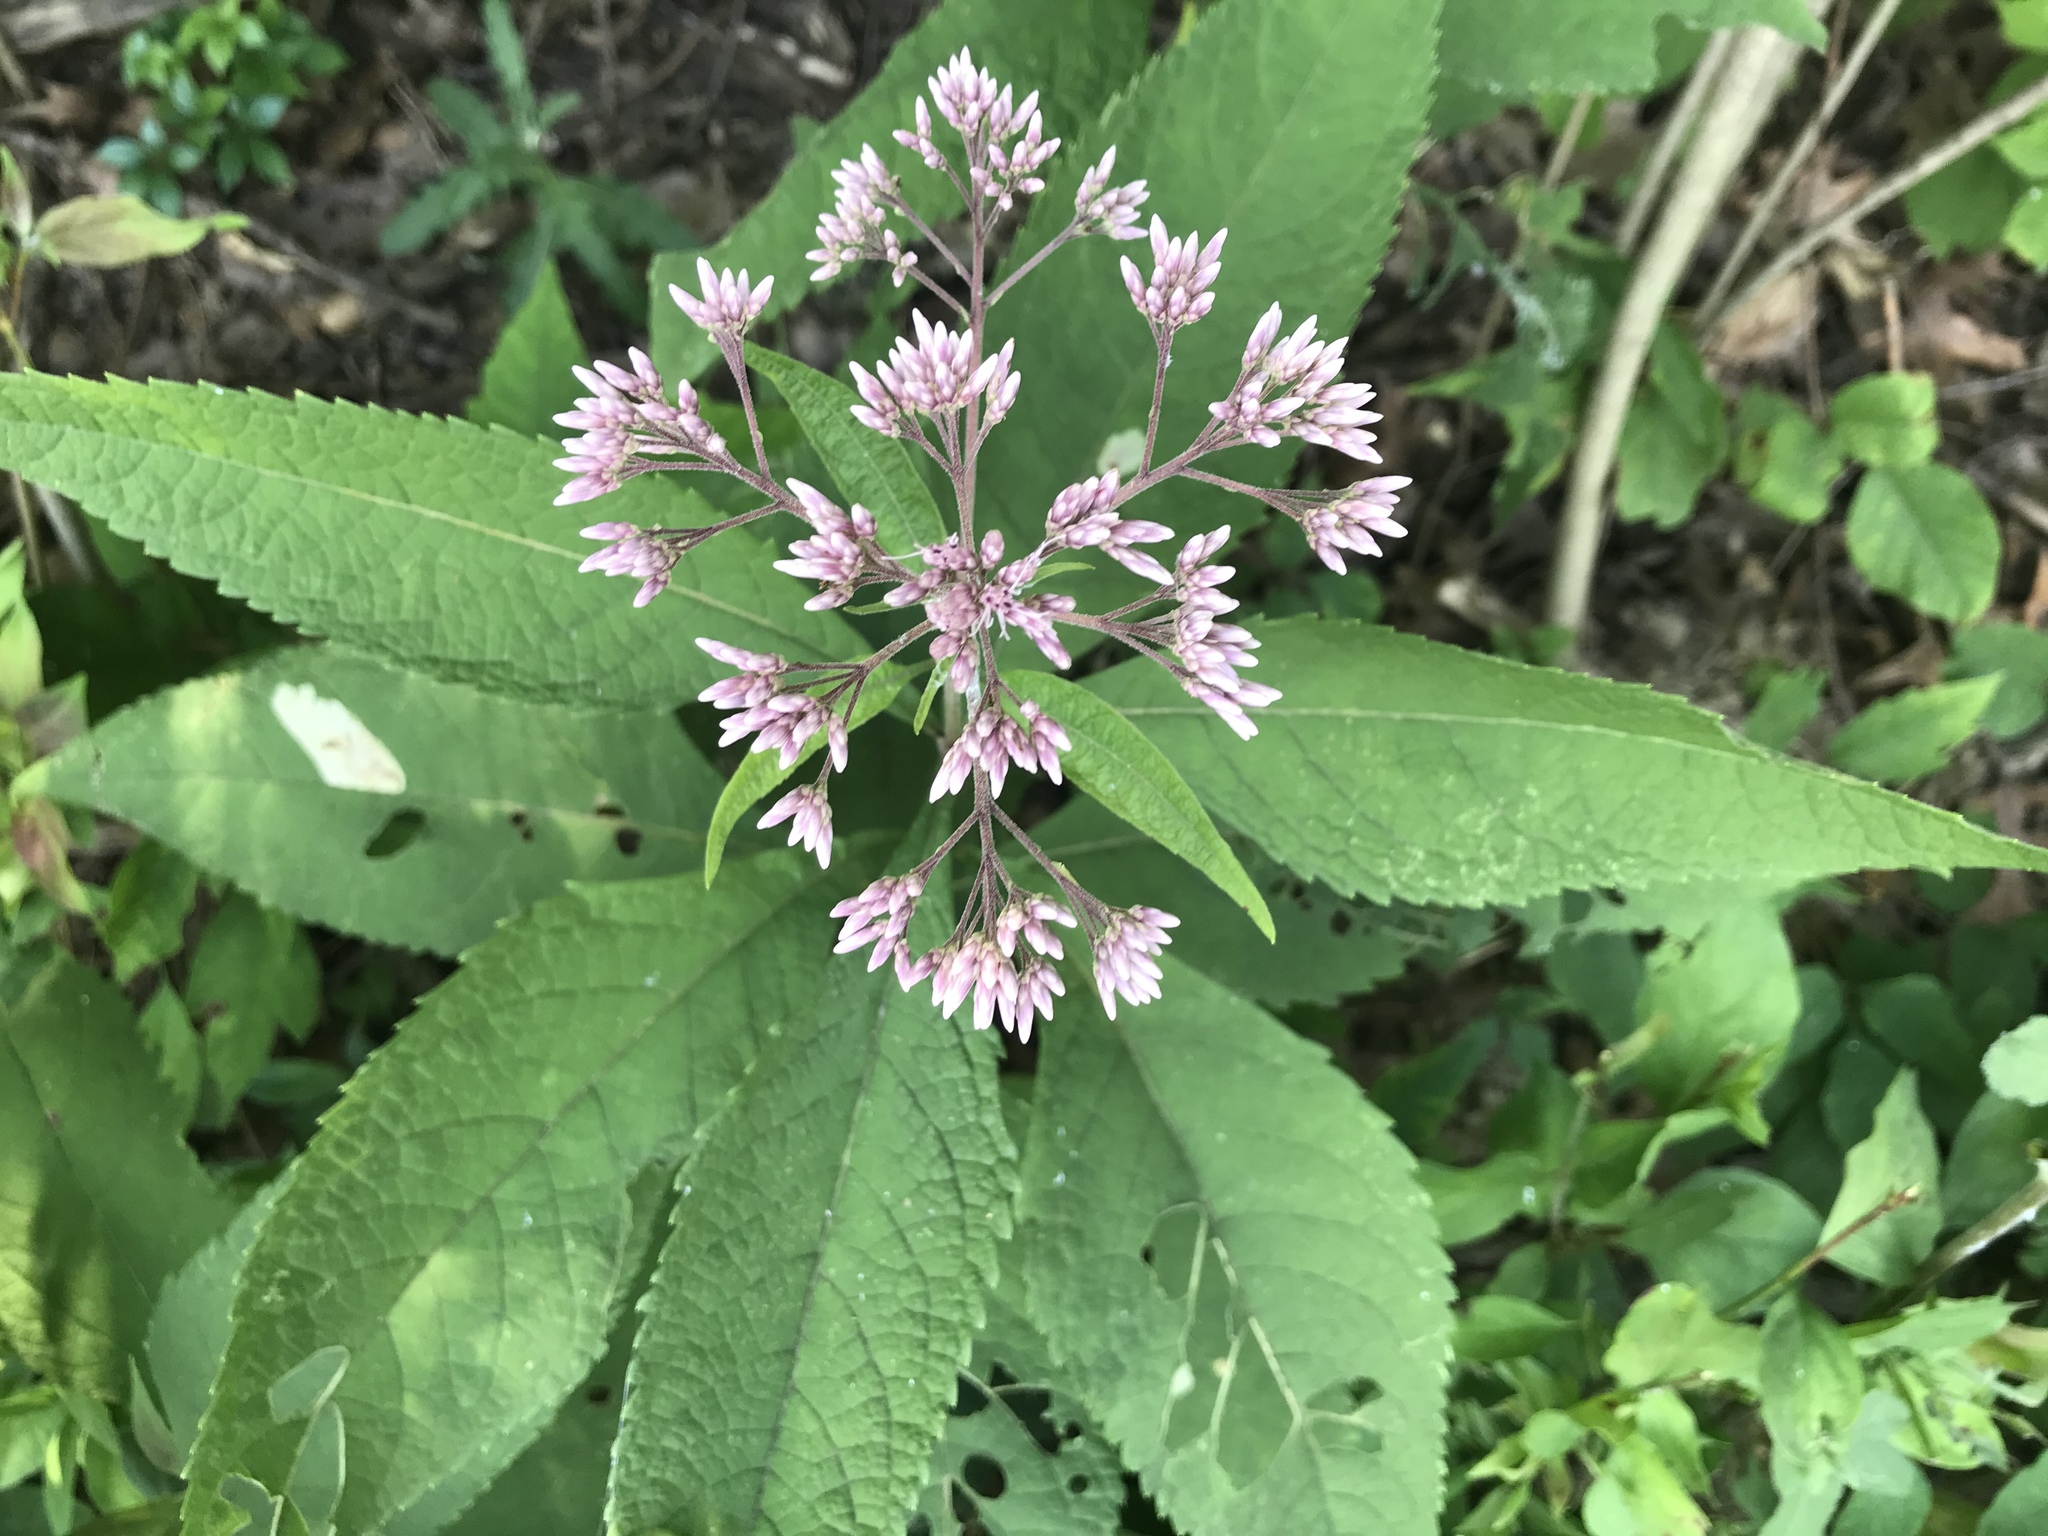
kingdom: Plantae
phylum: Tracheophyta
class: Magnoliopsida
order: Asterales
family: Asteraceae
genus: Eutrochium
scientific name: Eutrochium purpureum
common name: Gravelroot
